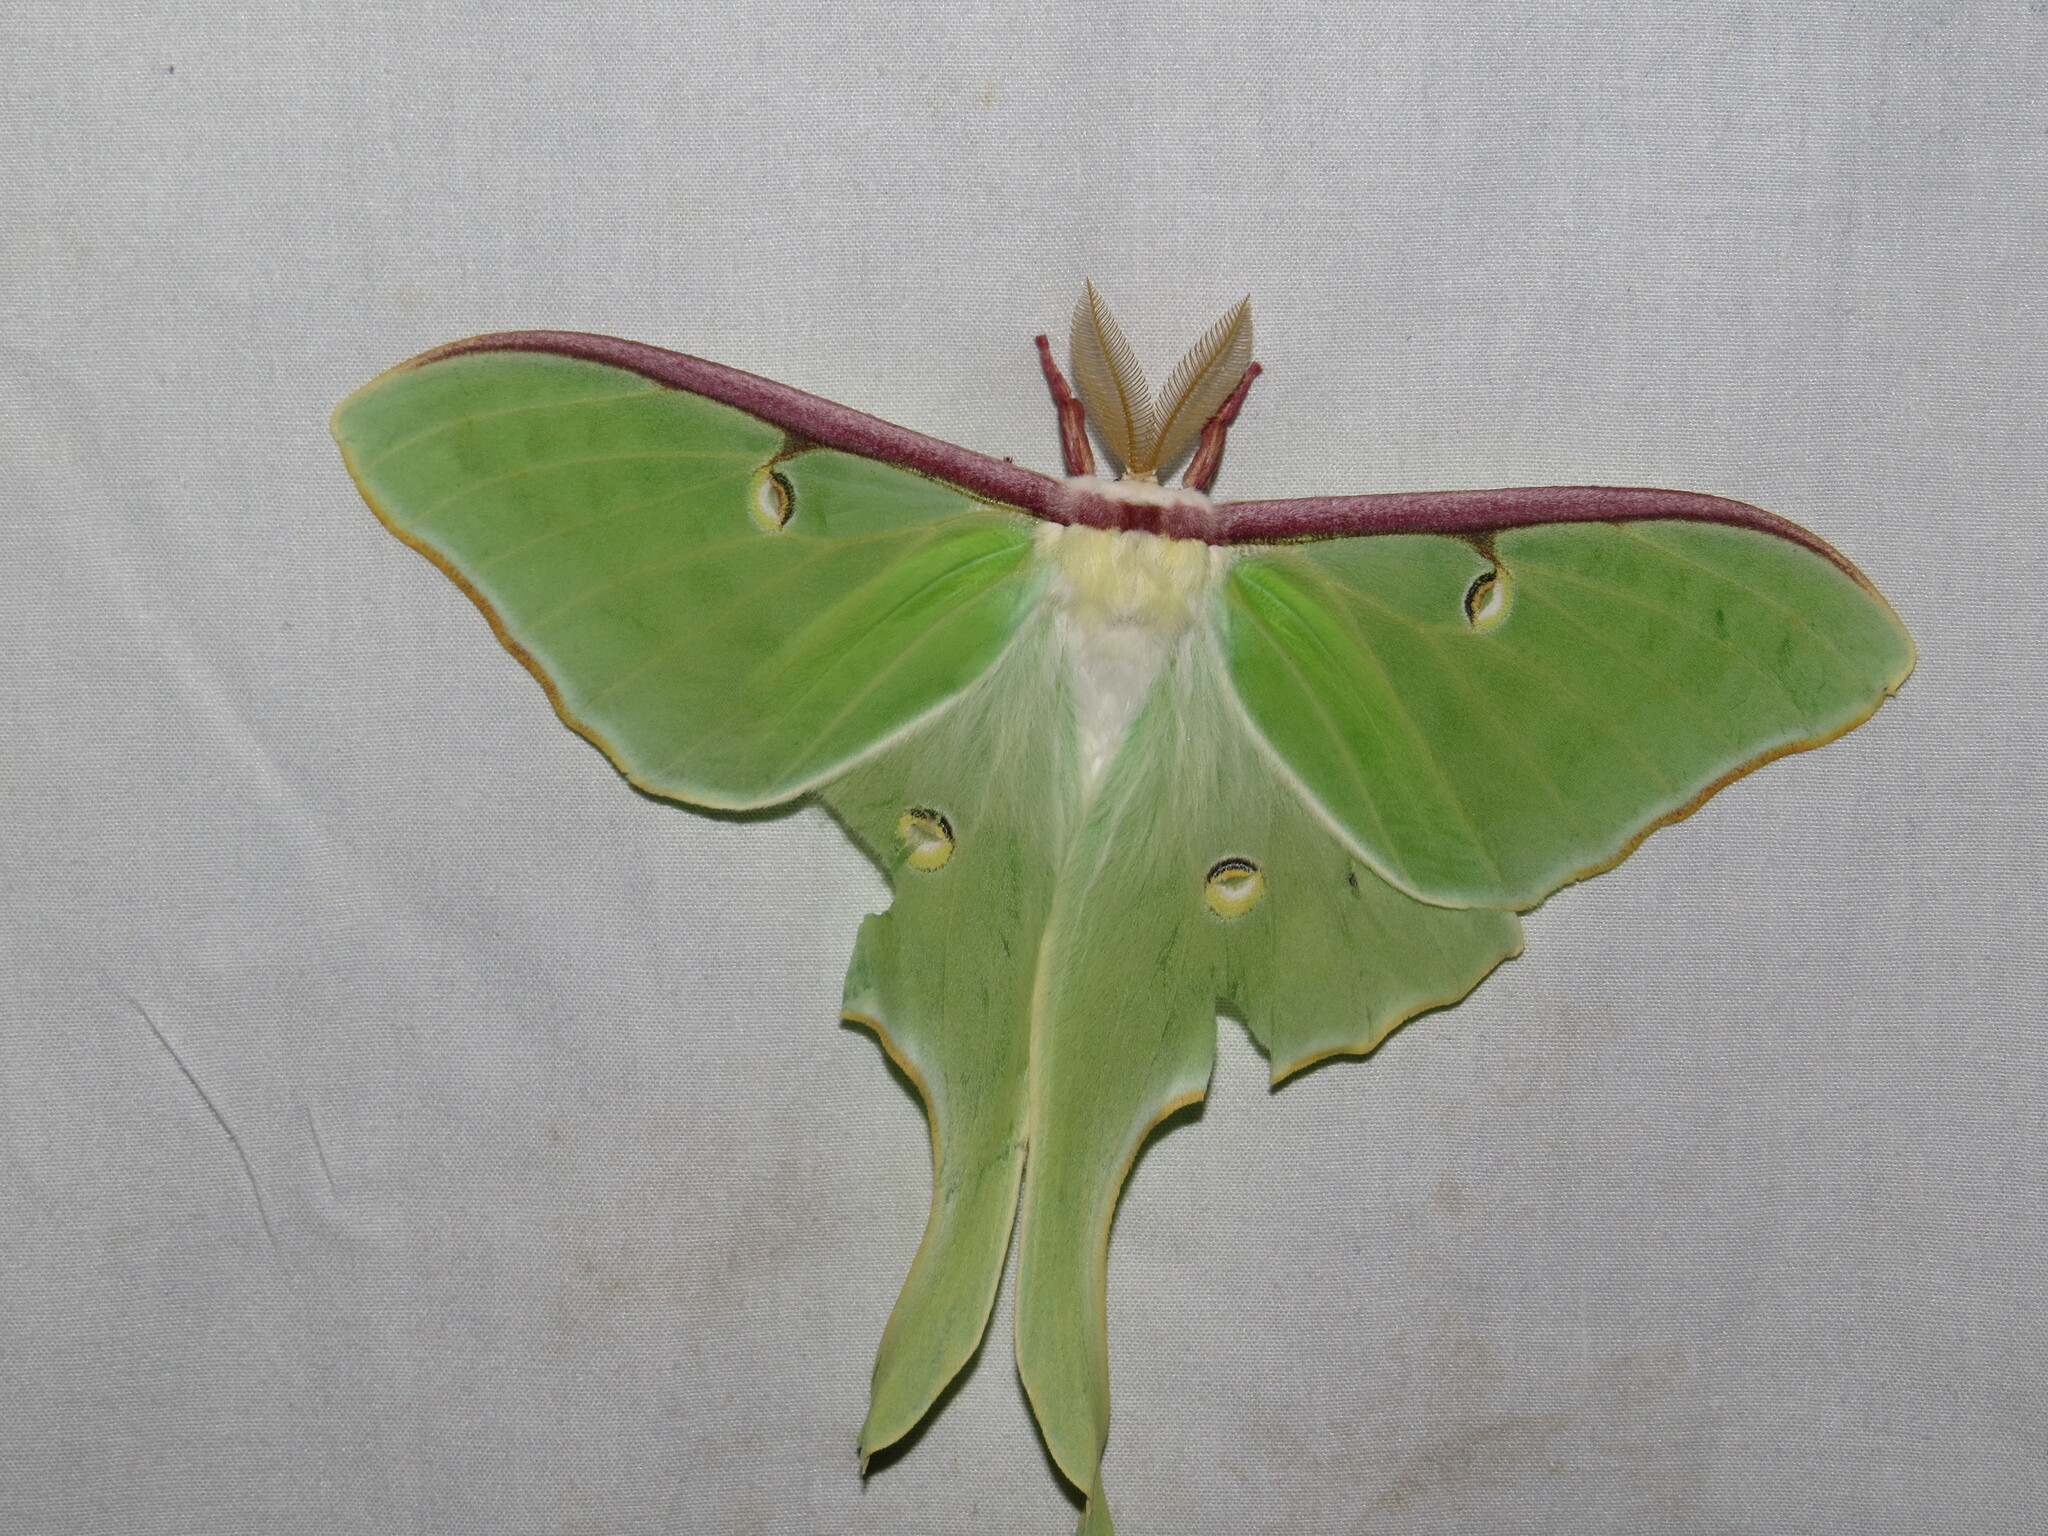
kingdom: Animalia
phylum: Arthropoda
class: Insecta
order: Lepidoptera
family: Saturniidae
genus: Actias
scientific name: Actias luna
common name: Luna moth
